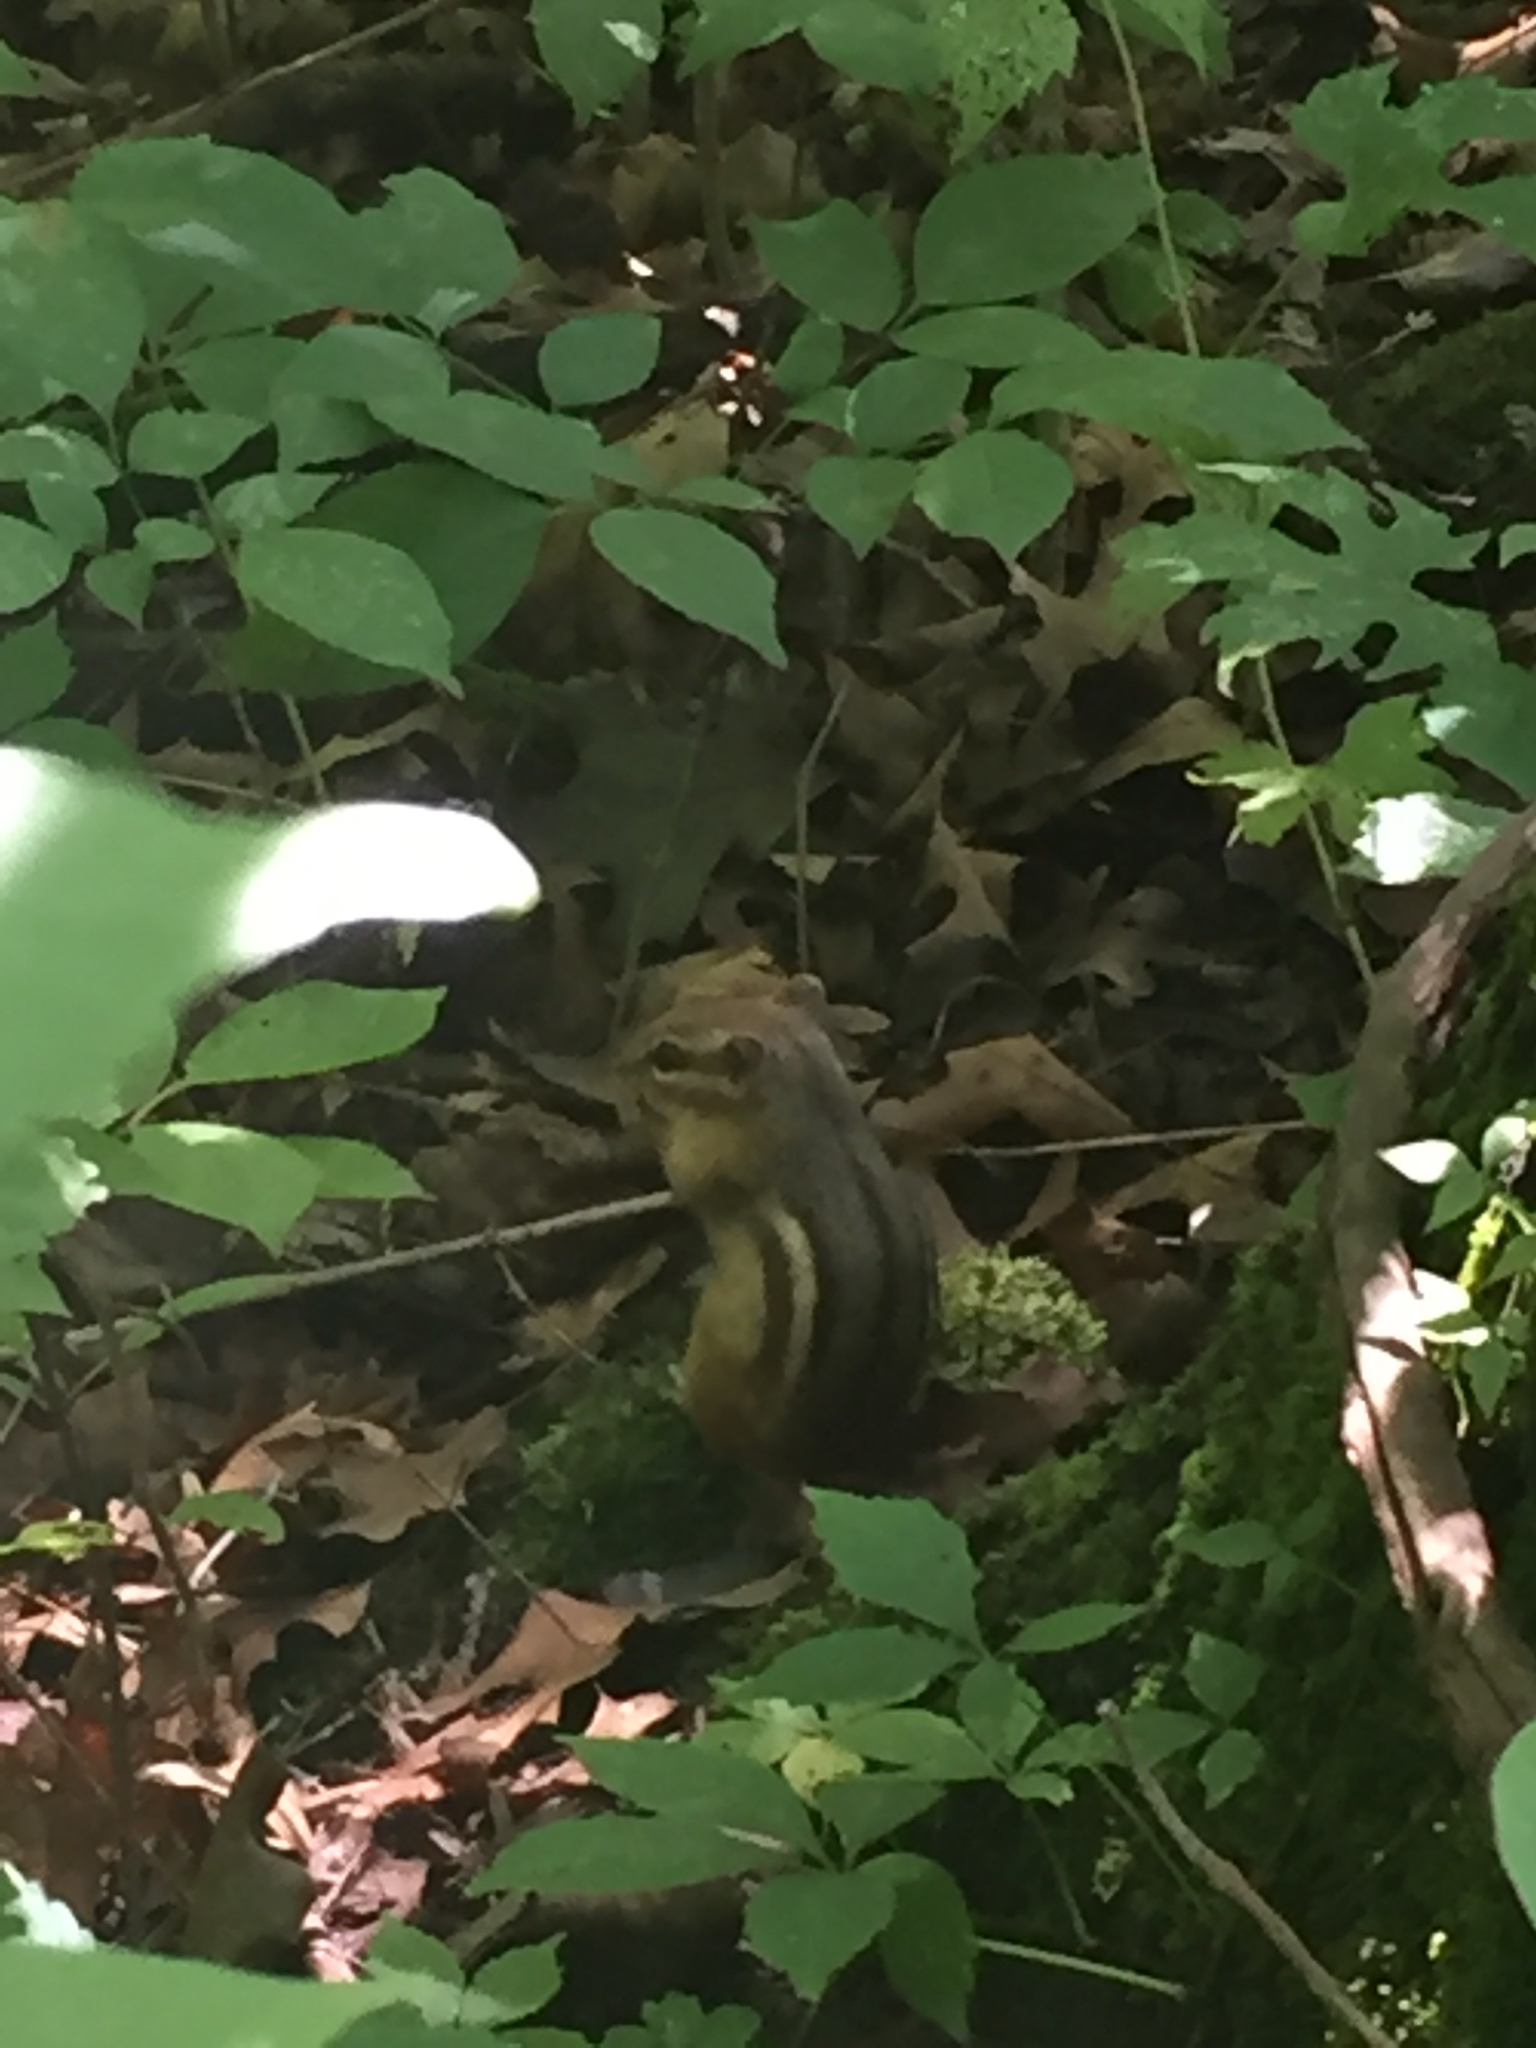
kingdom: Animalia
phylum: Chordata
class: Mammalia
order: Rodentia
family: Sciuridae
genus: Tamias
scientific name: Tamias striatus
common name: Eastern chipmunk
